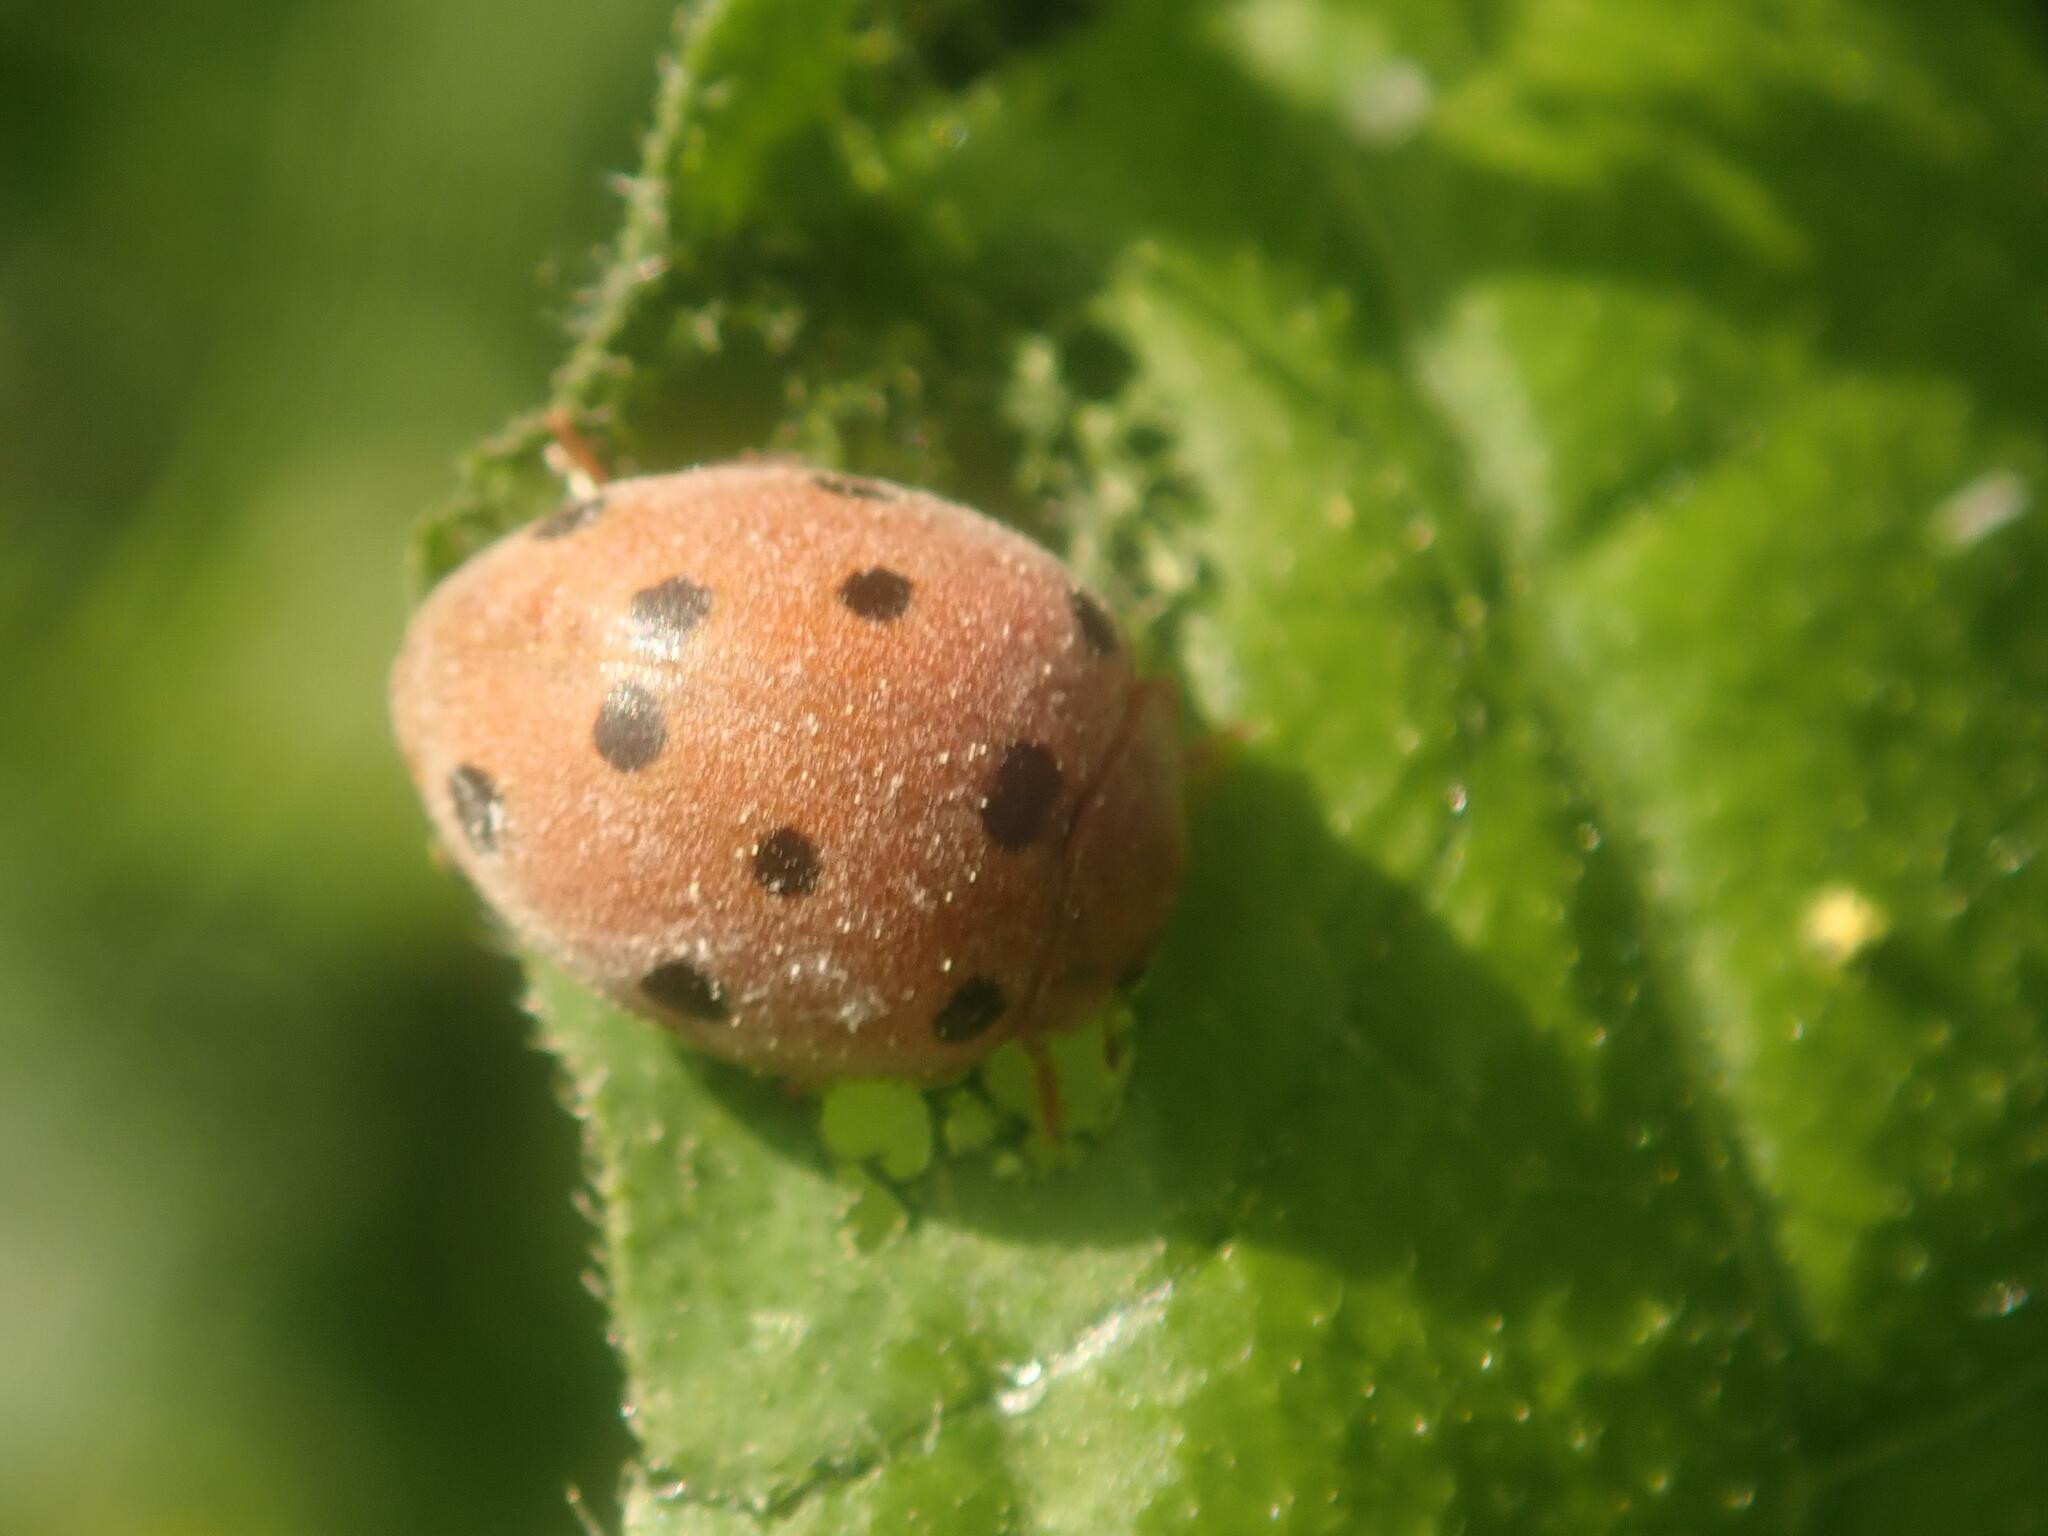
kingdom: Animalia
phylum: Arthropoda
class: Insecta
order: Coleoptera
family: Coccinellidae
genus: Henosepilachna
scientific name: Henosepilachna argus
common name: Bryony ladybird
